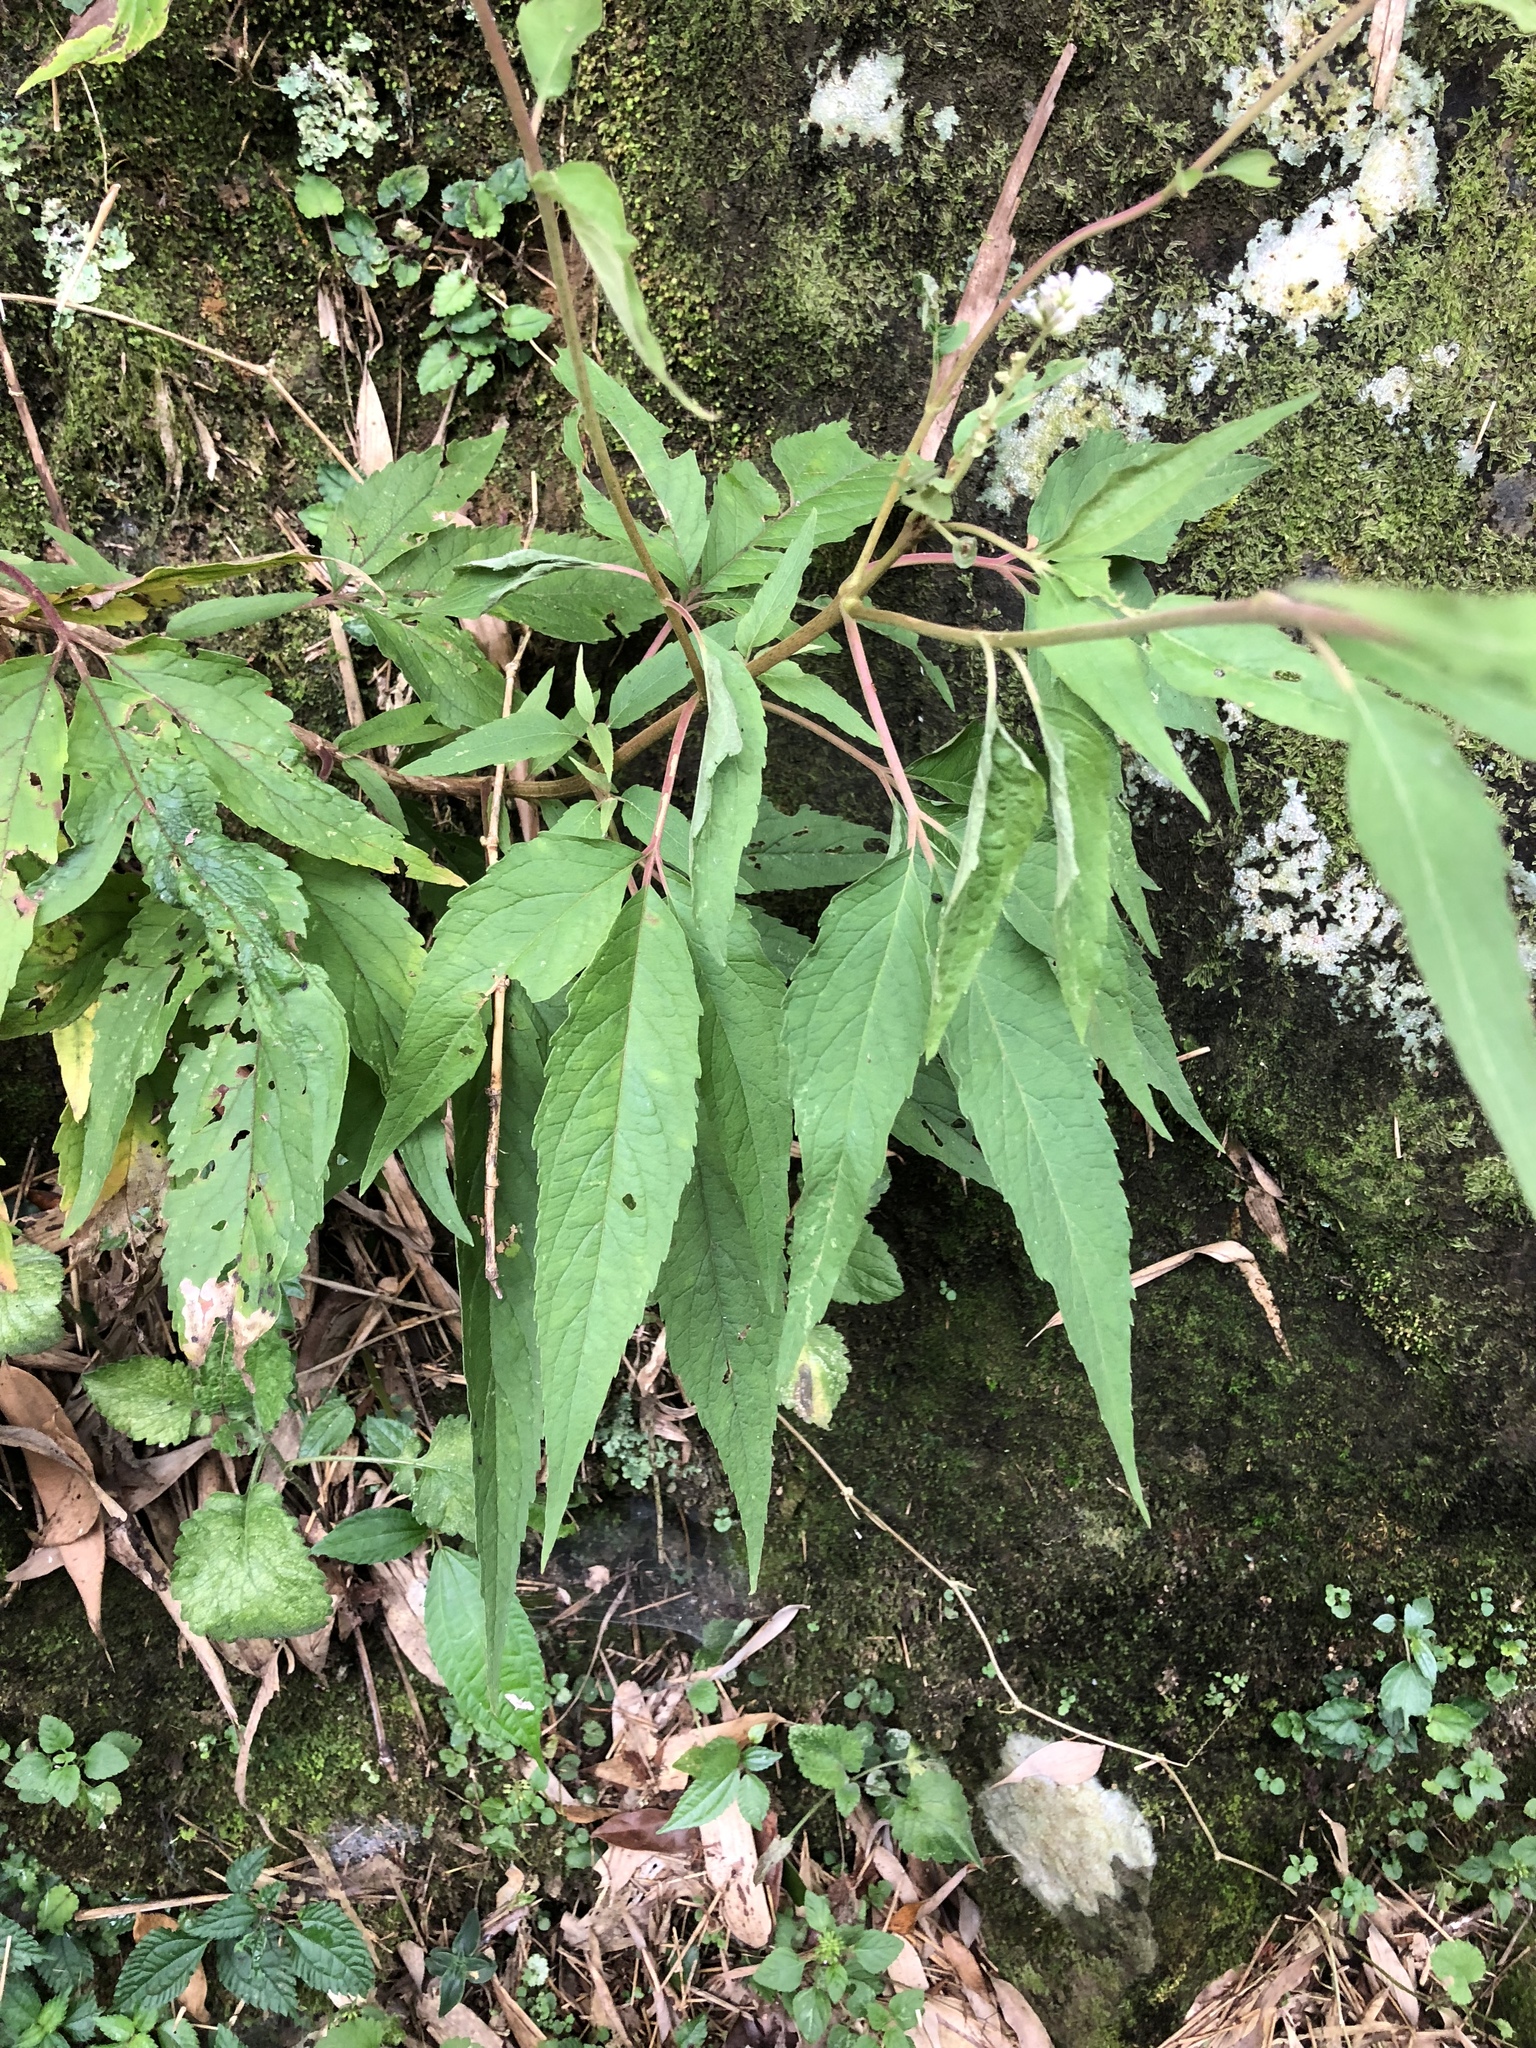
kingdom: Plantae
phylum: Tracheophyta
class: Magnoliopsida
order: Asterales
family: Asteraceae
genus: Eupatorium
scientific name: Eupatorium formosanum
